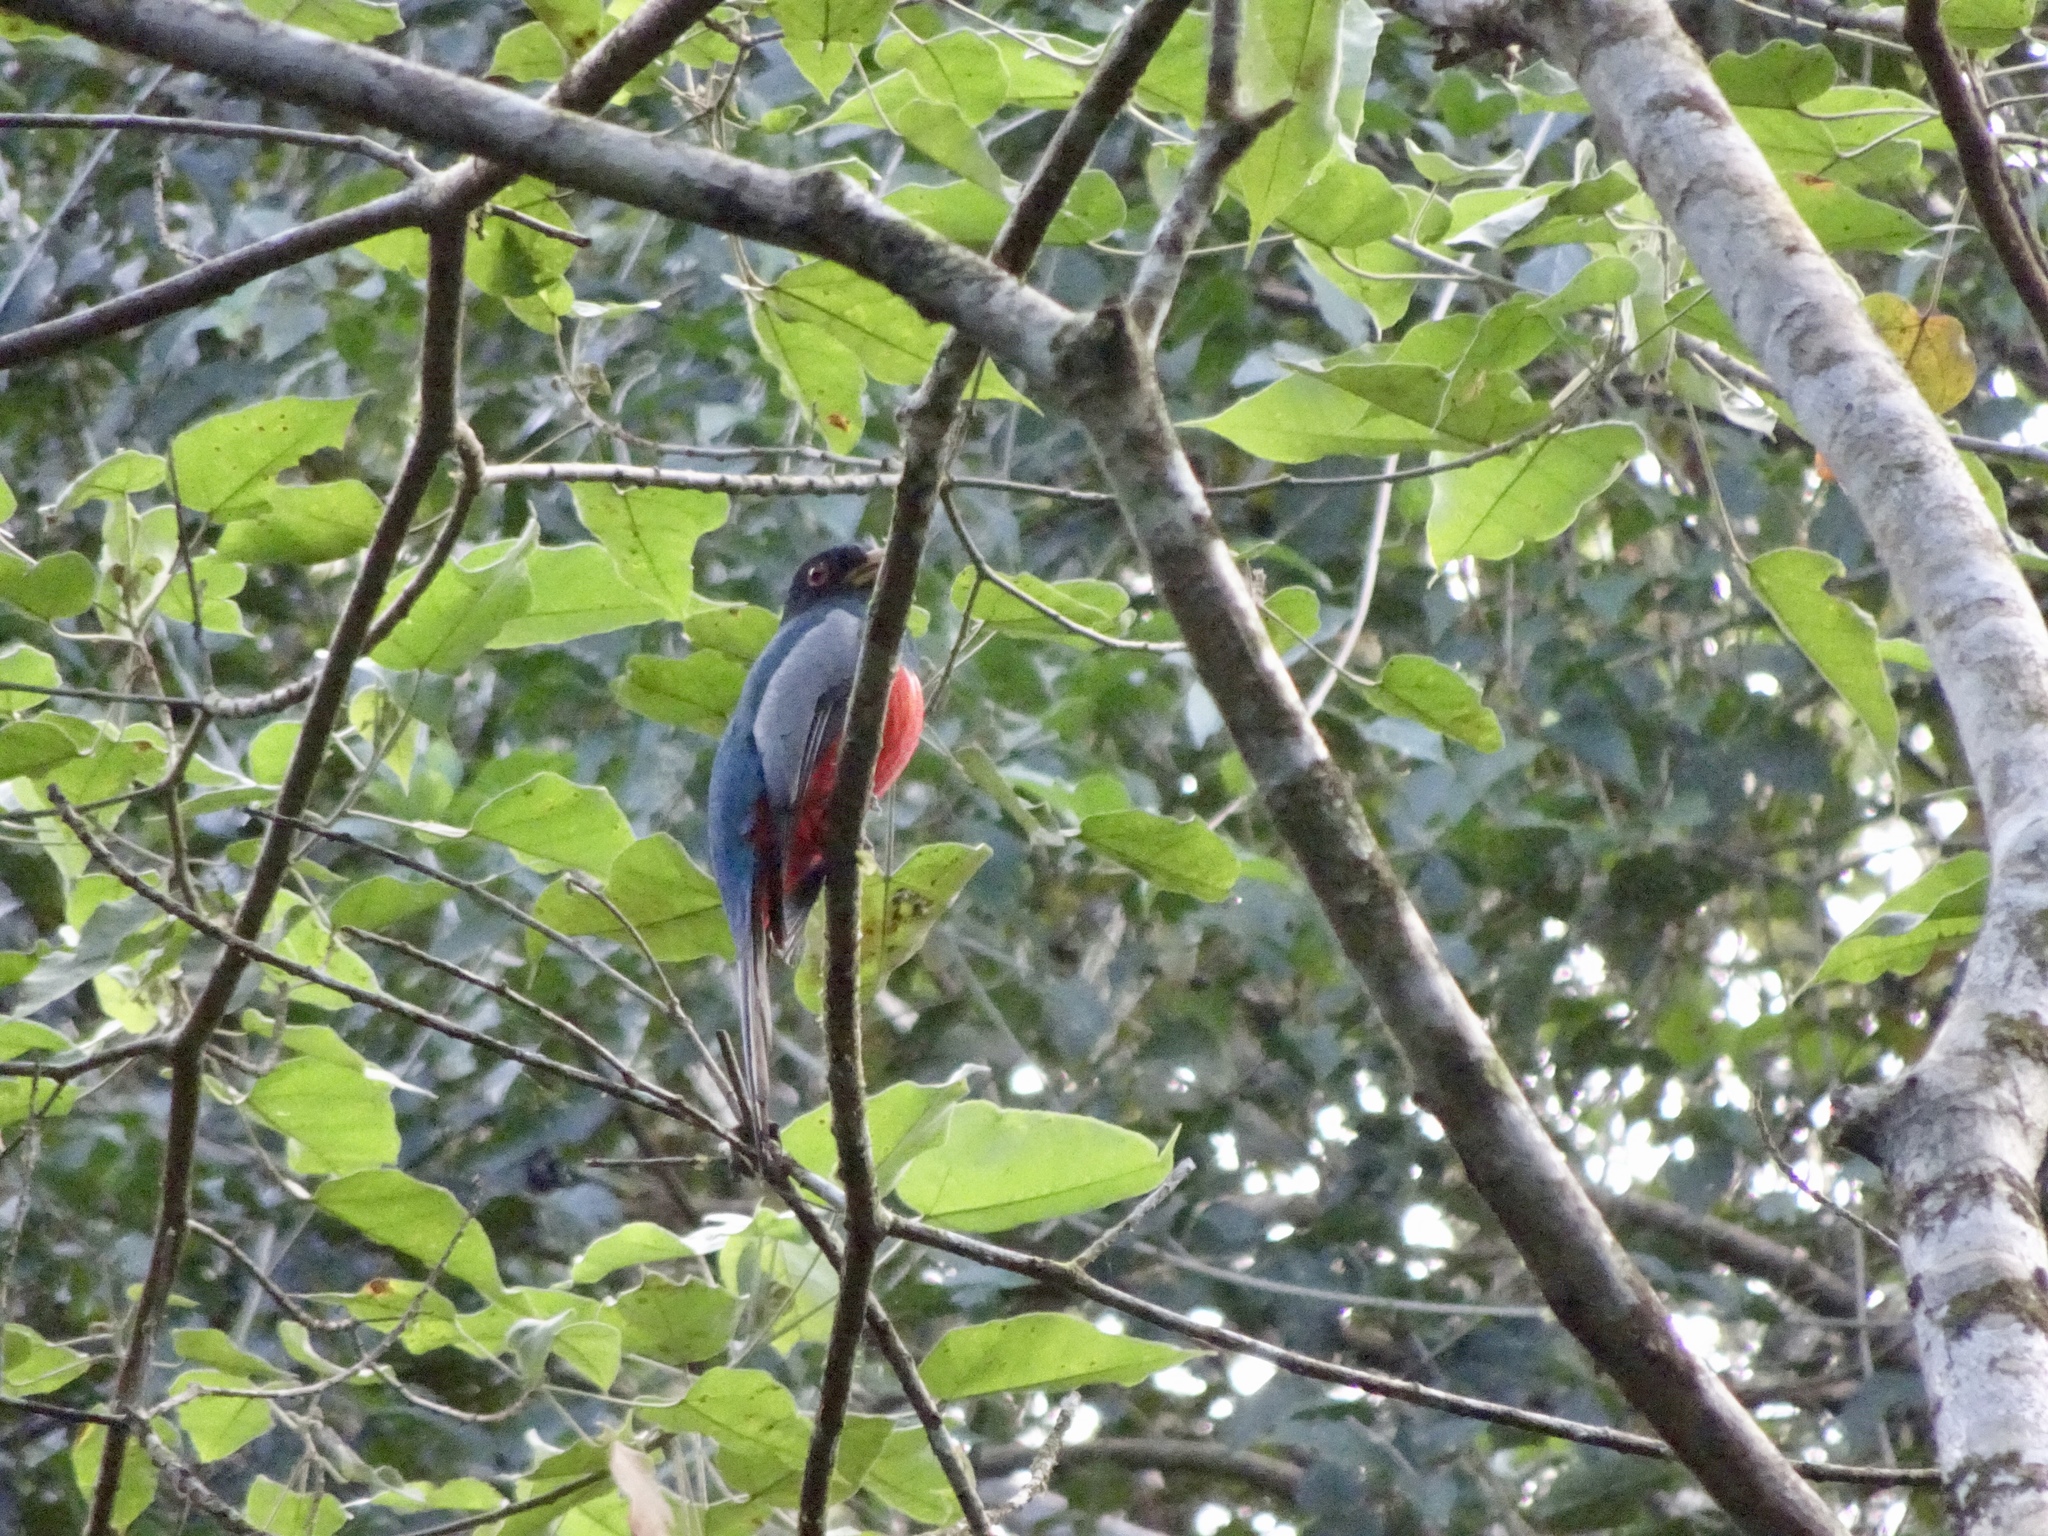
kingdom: Animalia
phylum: Chordata
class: Aves
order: Trogoniformes
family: Trogonidae
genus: Trogon
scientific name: Trogon melanurus
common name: Black-tailed trogon
